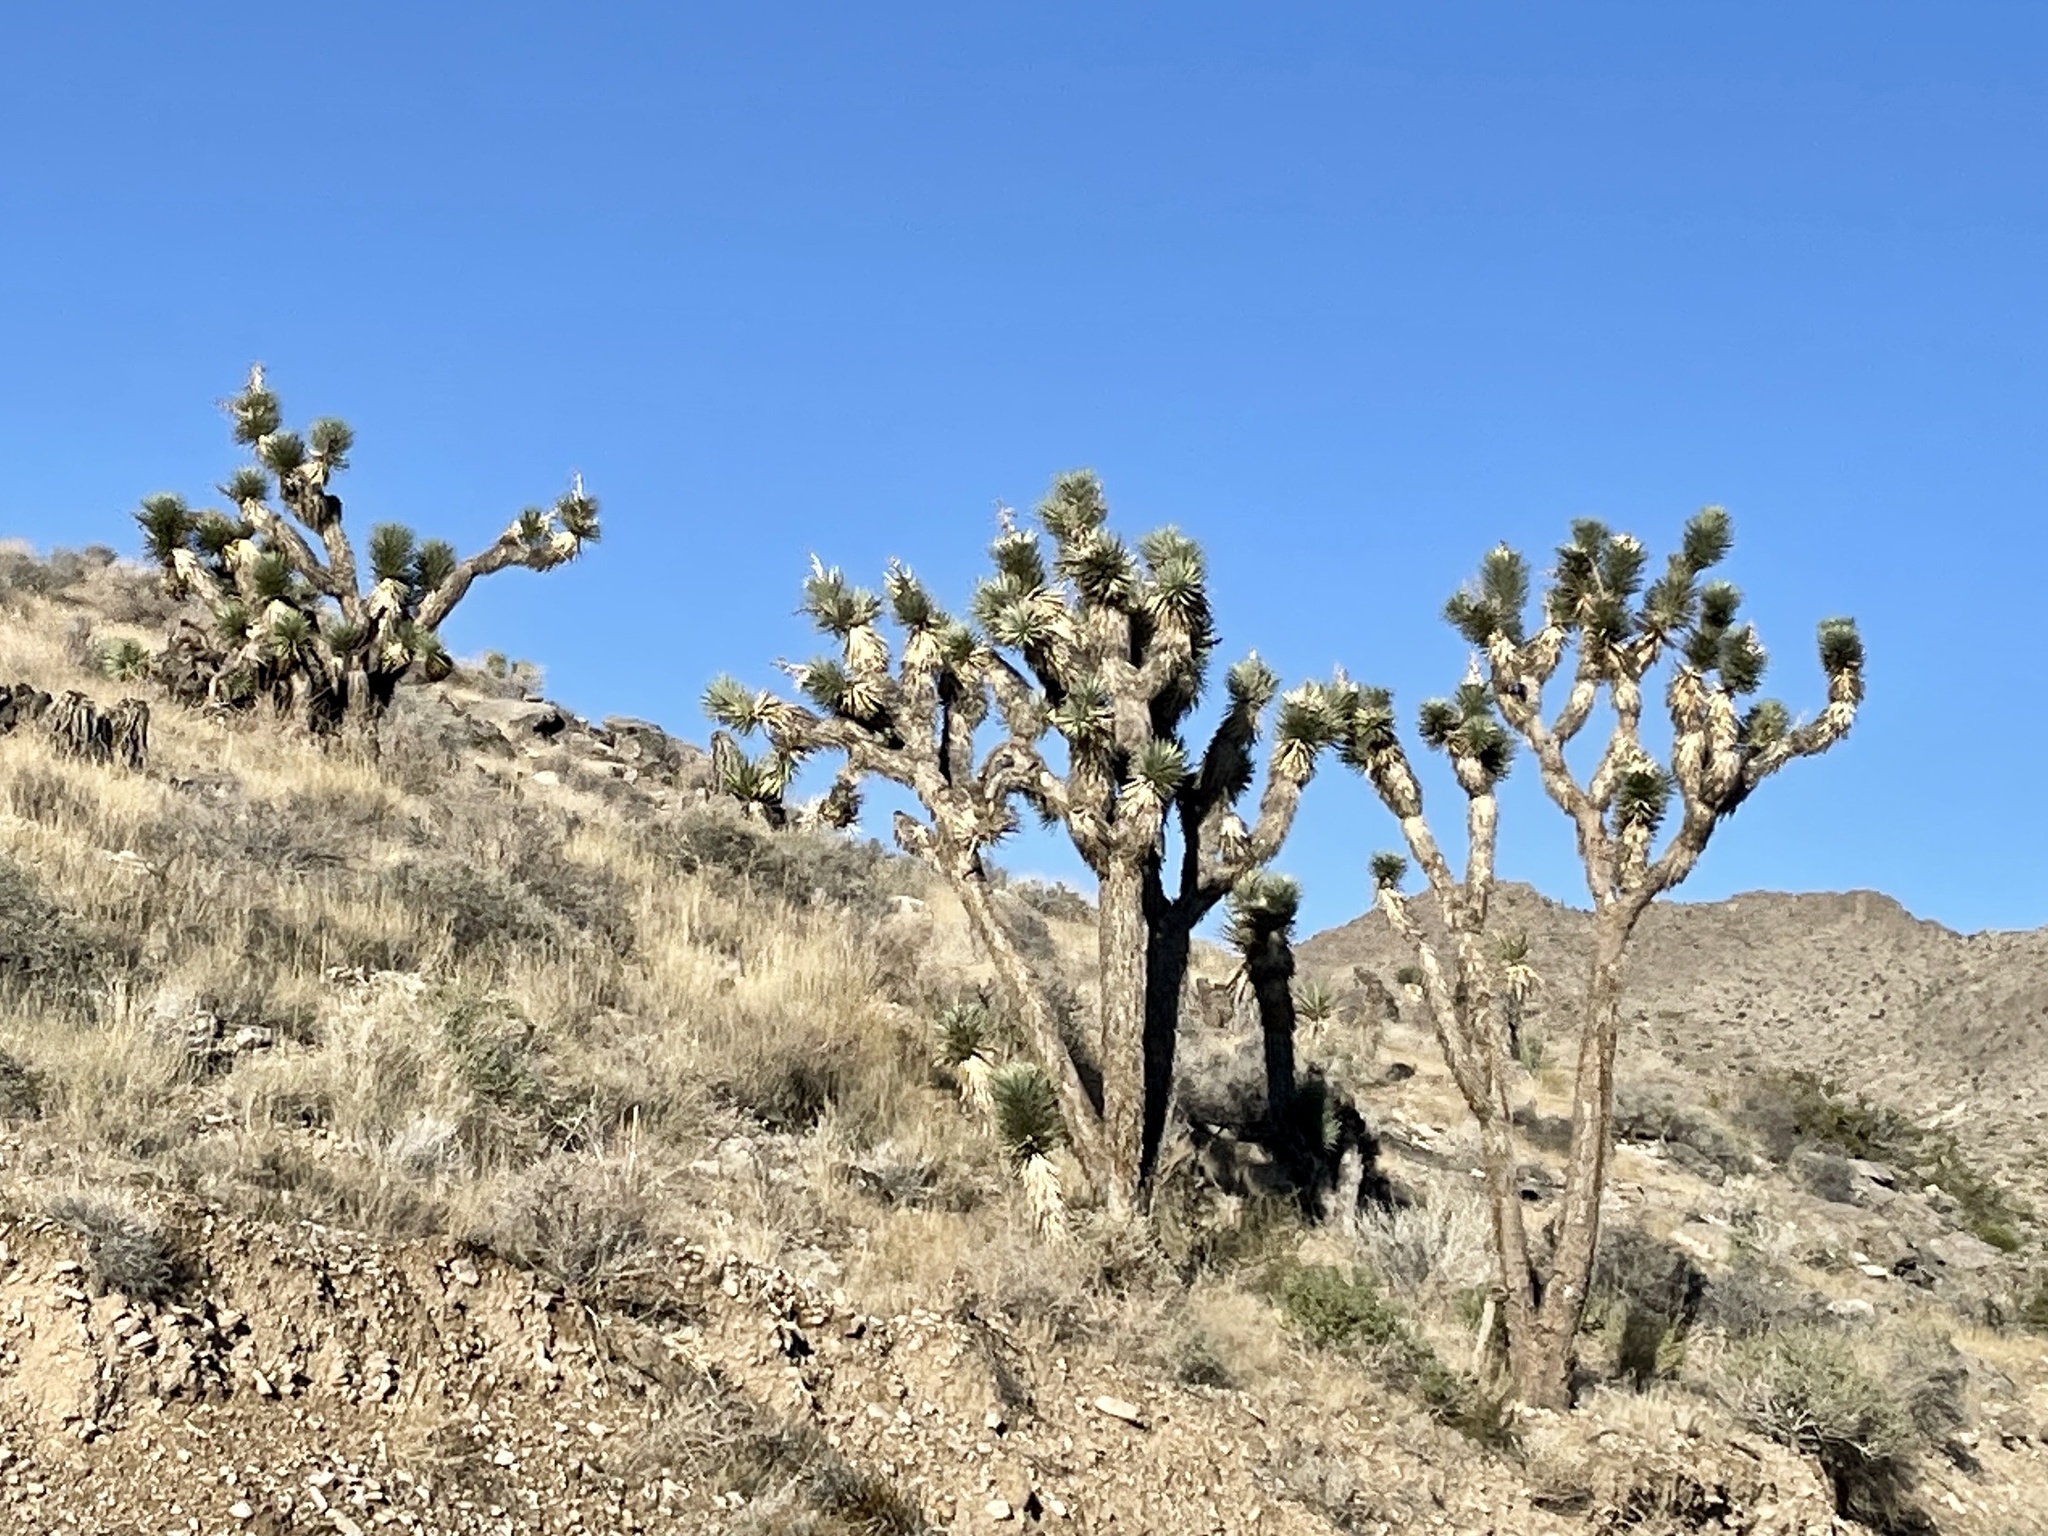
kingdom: Plantae
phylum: Tracheophyta
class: Liliopsida
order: Asparagales
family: Asparagaceae
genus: Yucca
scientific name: Yucca brevifolia
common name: Joshua tree
